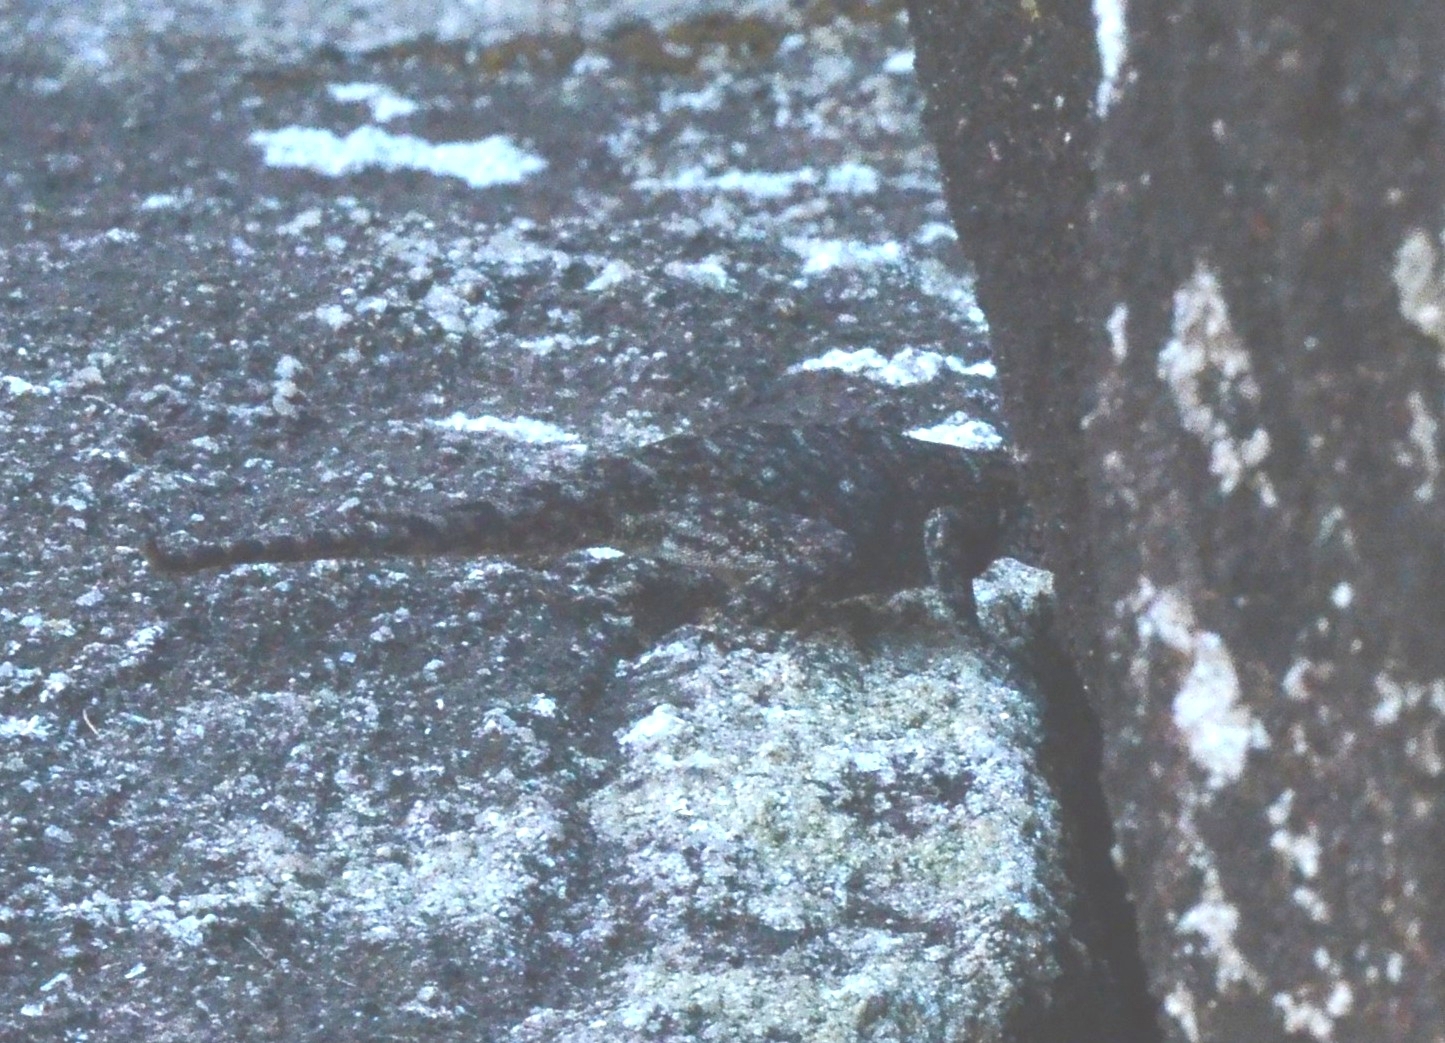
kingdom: Animalia
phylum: Chordata
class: Squamata
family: Agamidae
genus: Psammophilus
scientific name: Psammophilus dorsalis
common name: South indian rock agama
